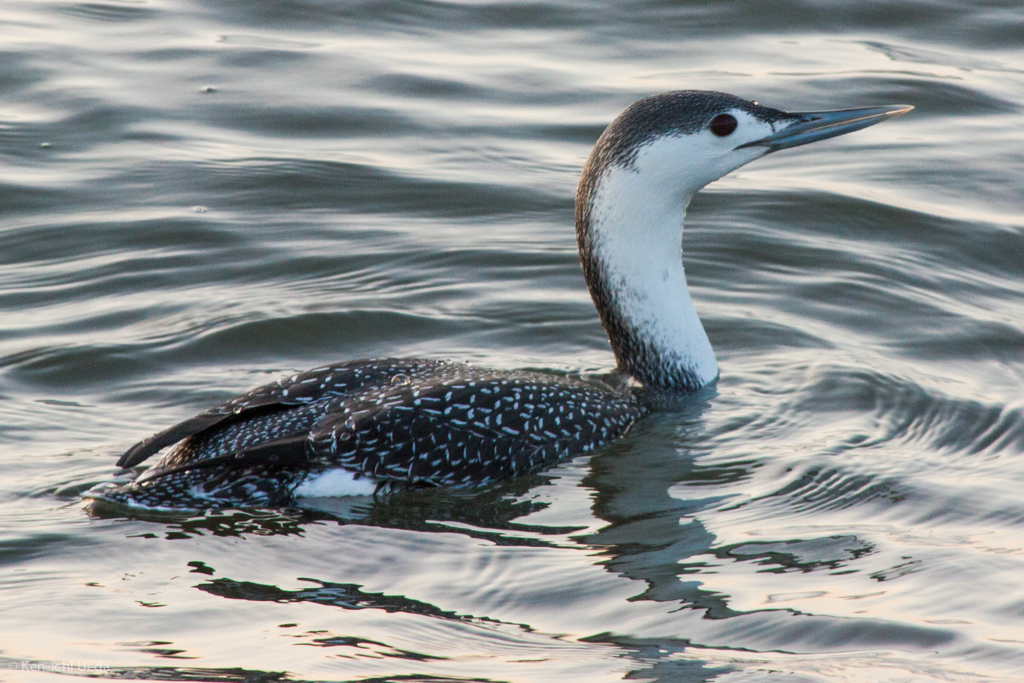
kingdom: Animalia
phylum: Chordata
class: Aves
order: Gaviiformes
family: Gaviidae
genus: Gavia
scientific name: Gavia stellata
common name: Red-throated loon
